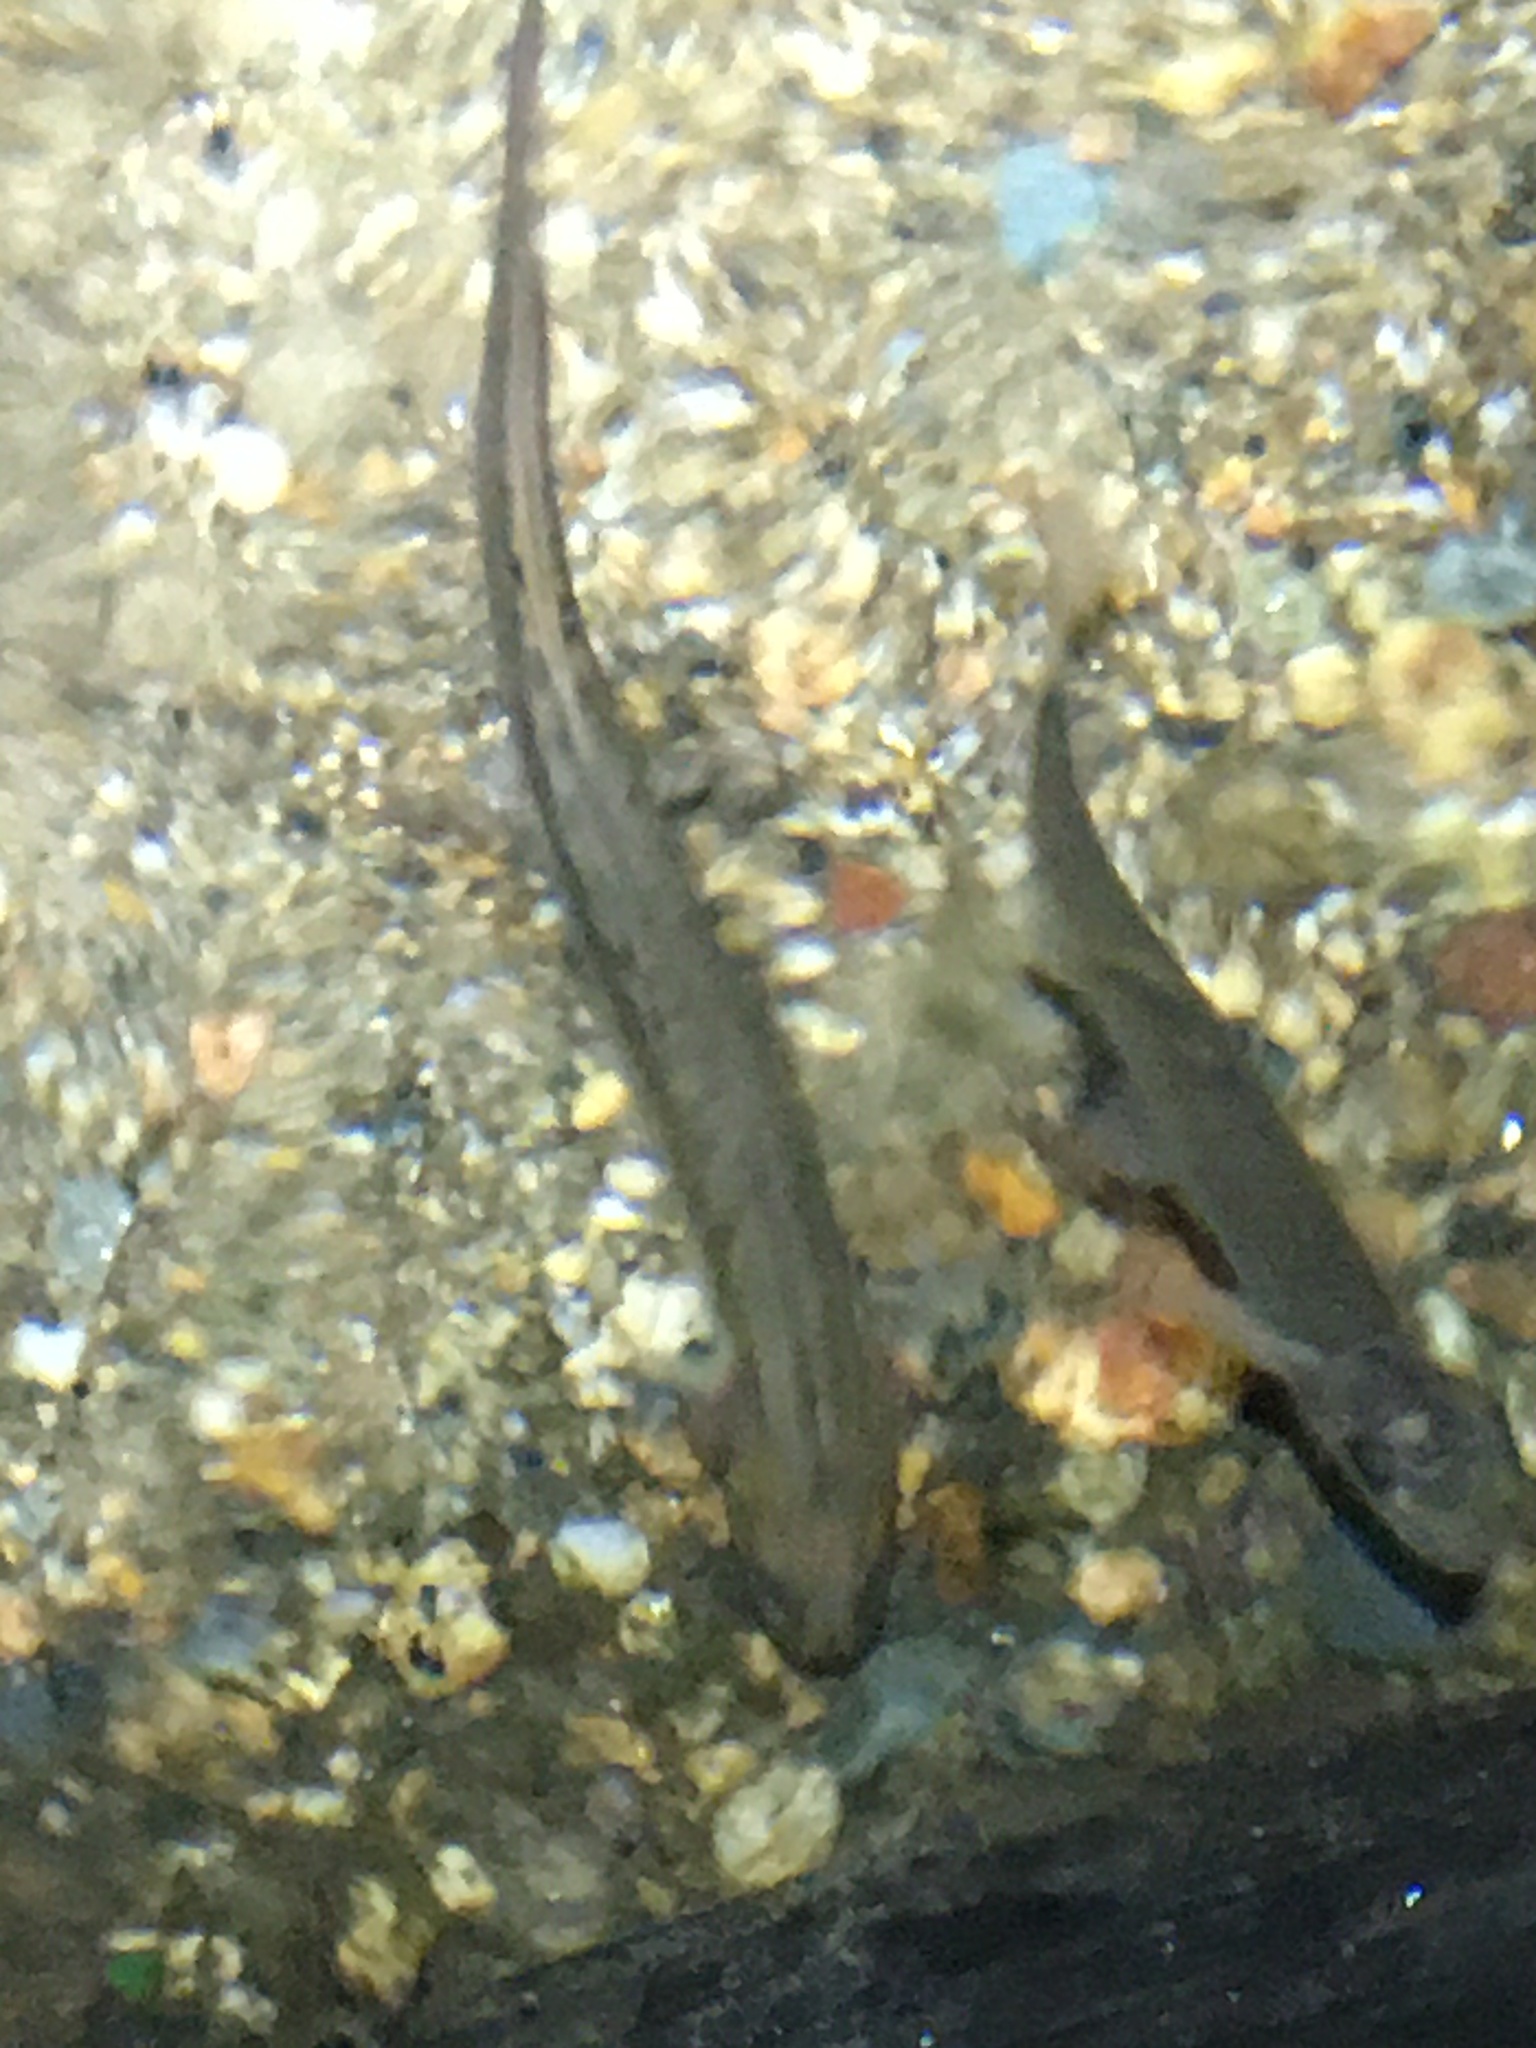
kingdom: Animalia
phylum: Chordata
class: Amphibia
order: Caudata
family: Plethodontidae
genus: Eurycea
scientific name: Eurycea bislineata
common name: Northern two-lined salamander
